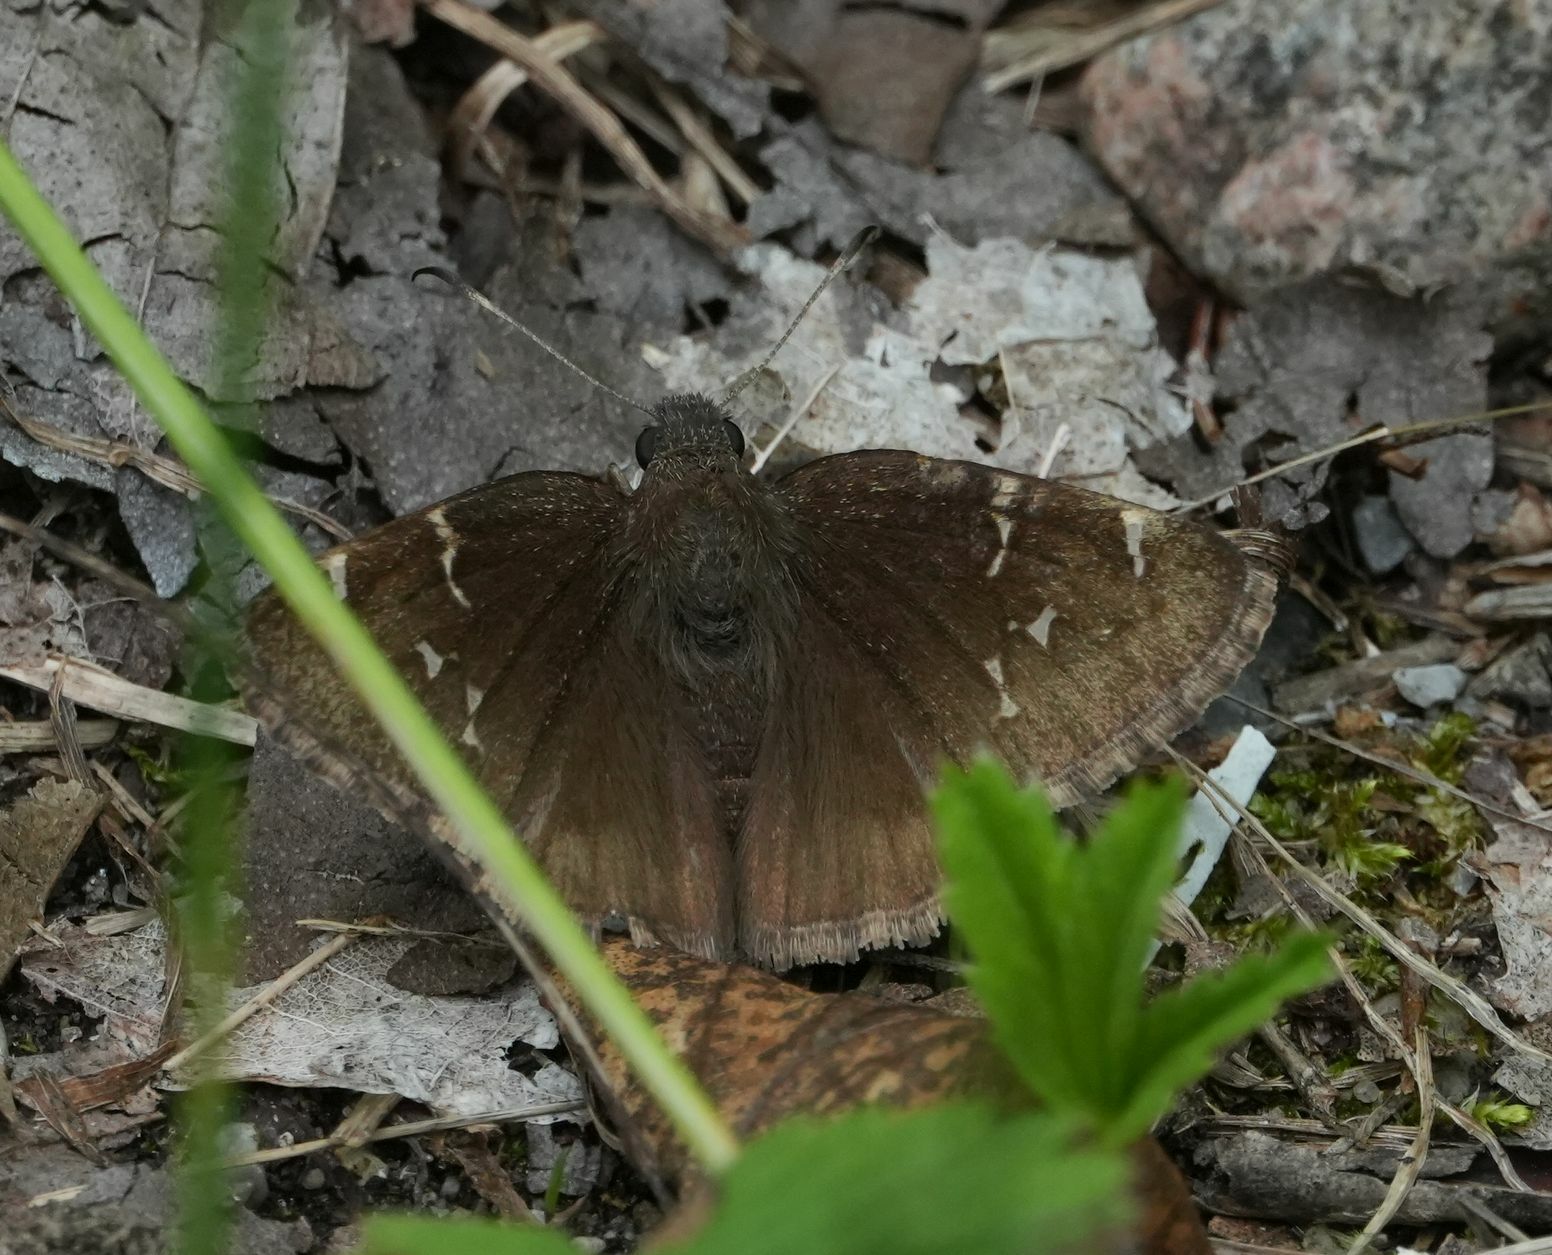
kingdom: Animalia
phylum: Arthropoda
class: Insecta
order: Lepidoptera
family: Hesperiidae
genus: Thorybes
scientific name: Thorybes pylades
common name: Northern cloudywing
